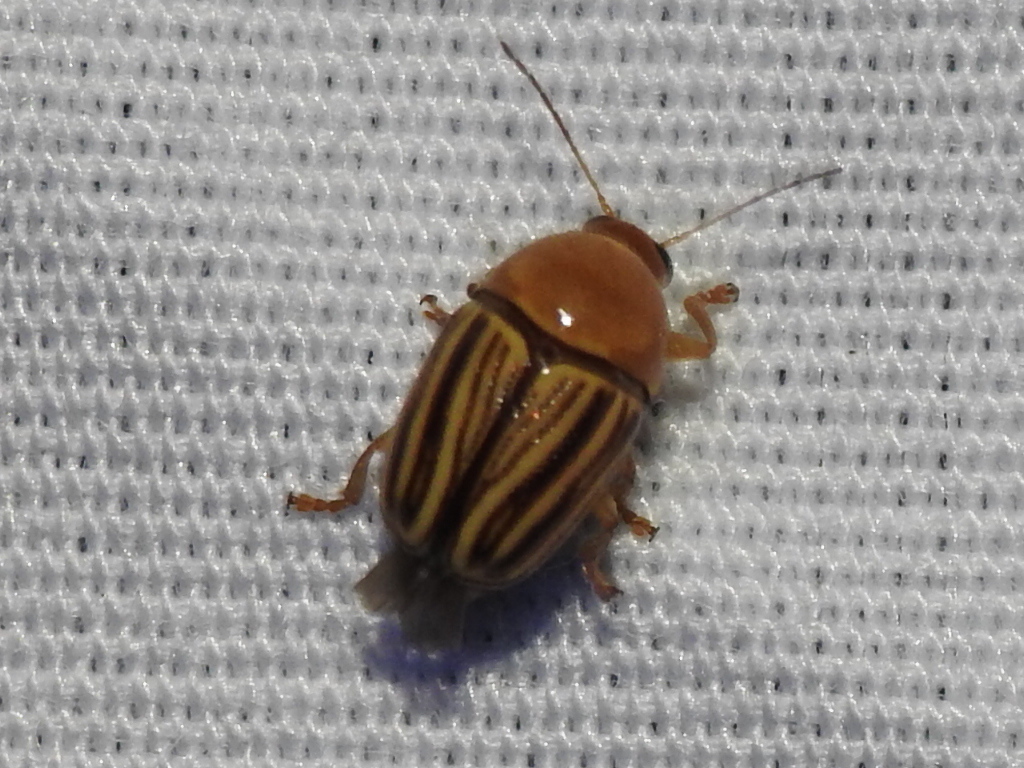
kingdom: Animalia
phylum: Arthropoda
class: Insecta
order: Coleoptera
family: Chrysomelidae
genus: Cryptocephalus
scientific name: Cryptocephalus brunneovittatus
